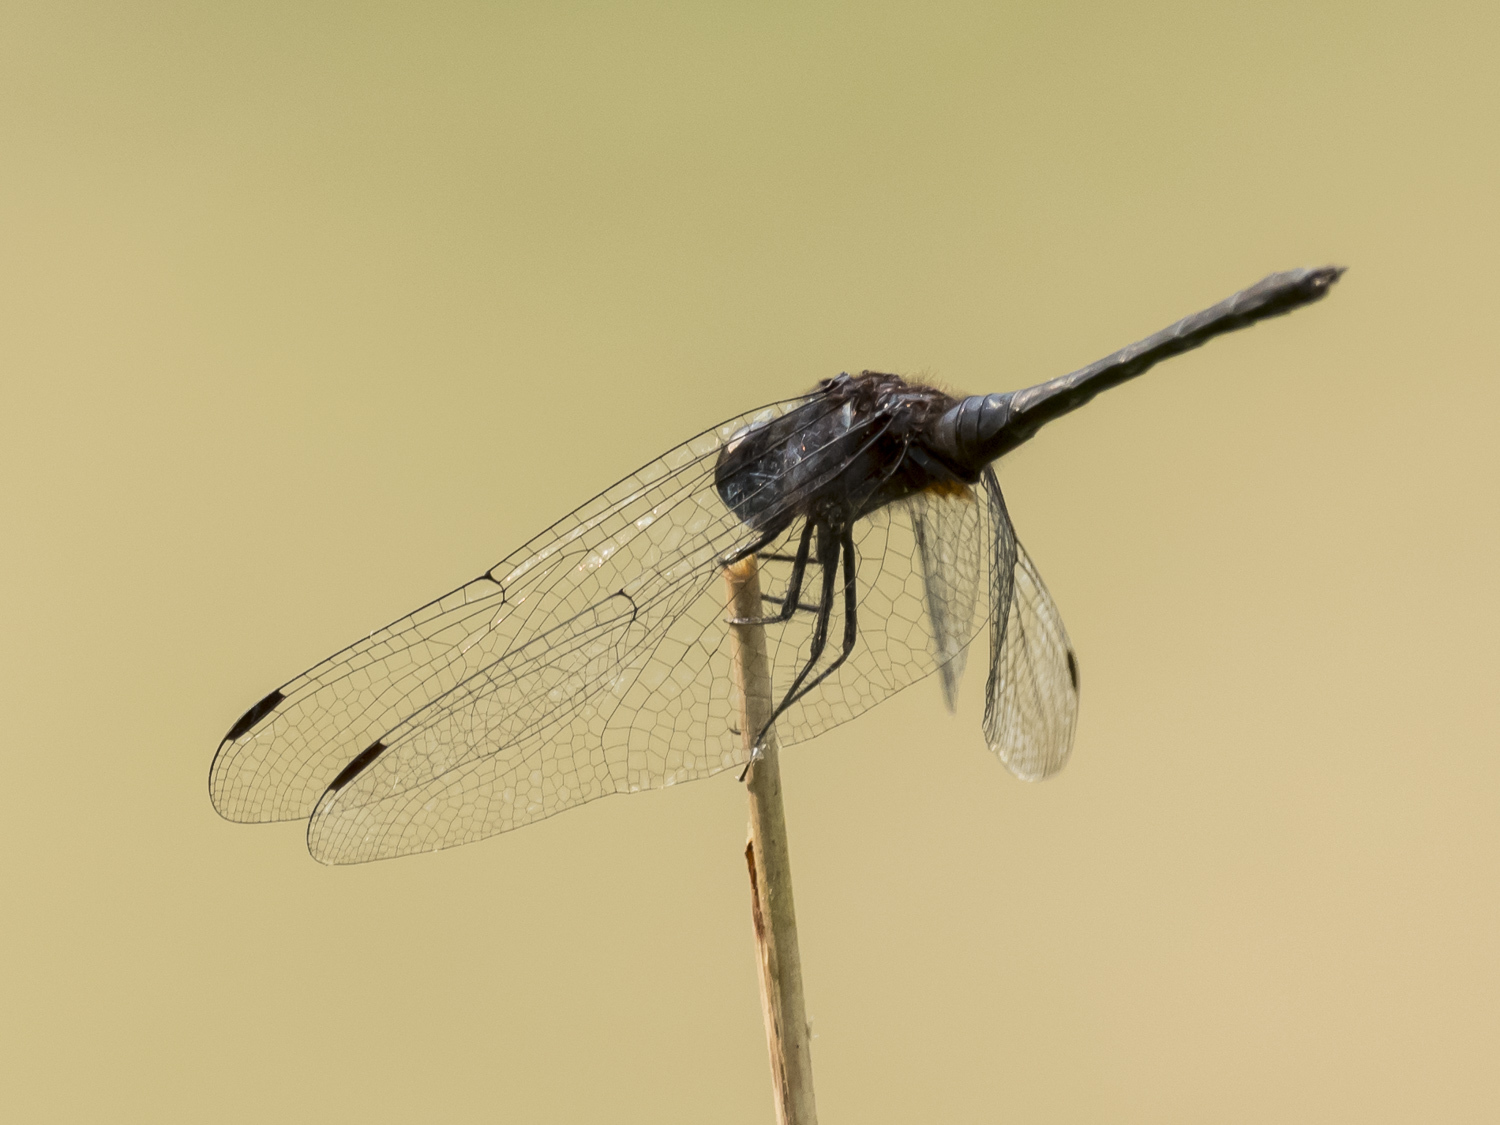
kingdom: Animalia
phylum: Arthropoda
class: Insecta
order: Odonata
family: Libellulidae
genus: Trithemis
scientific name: Trithemis festiva
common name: Indigo dropwing
